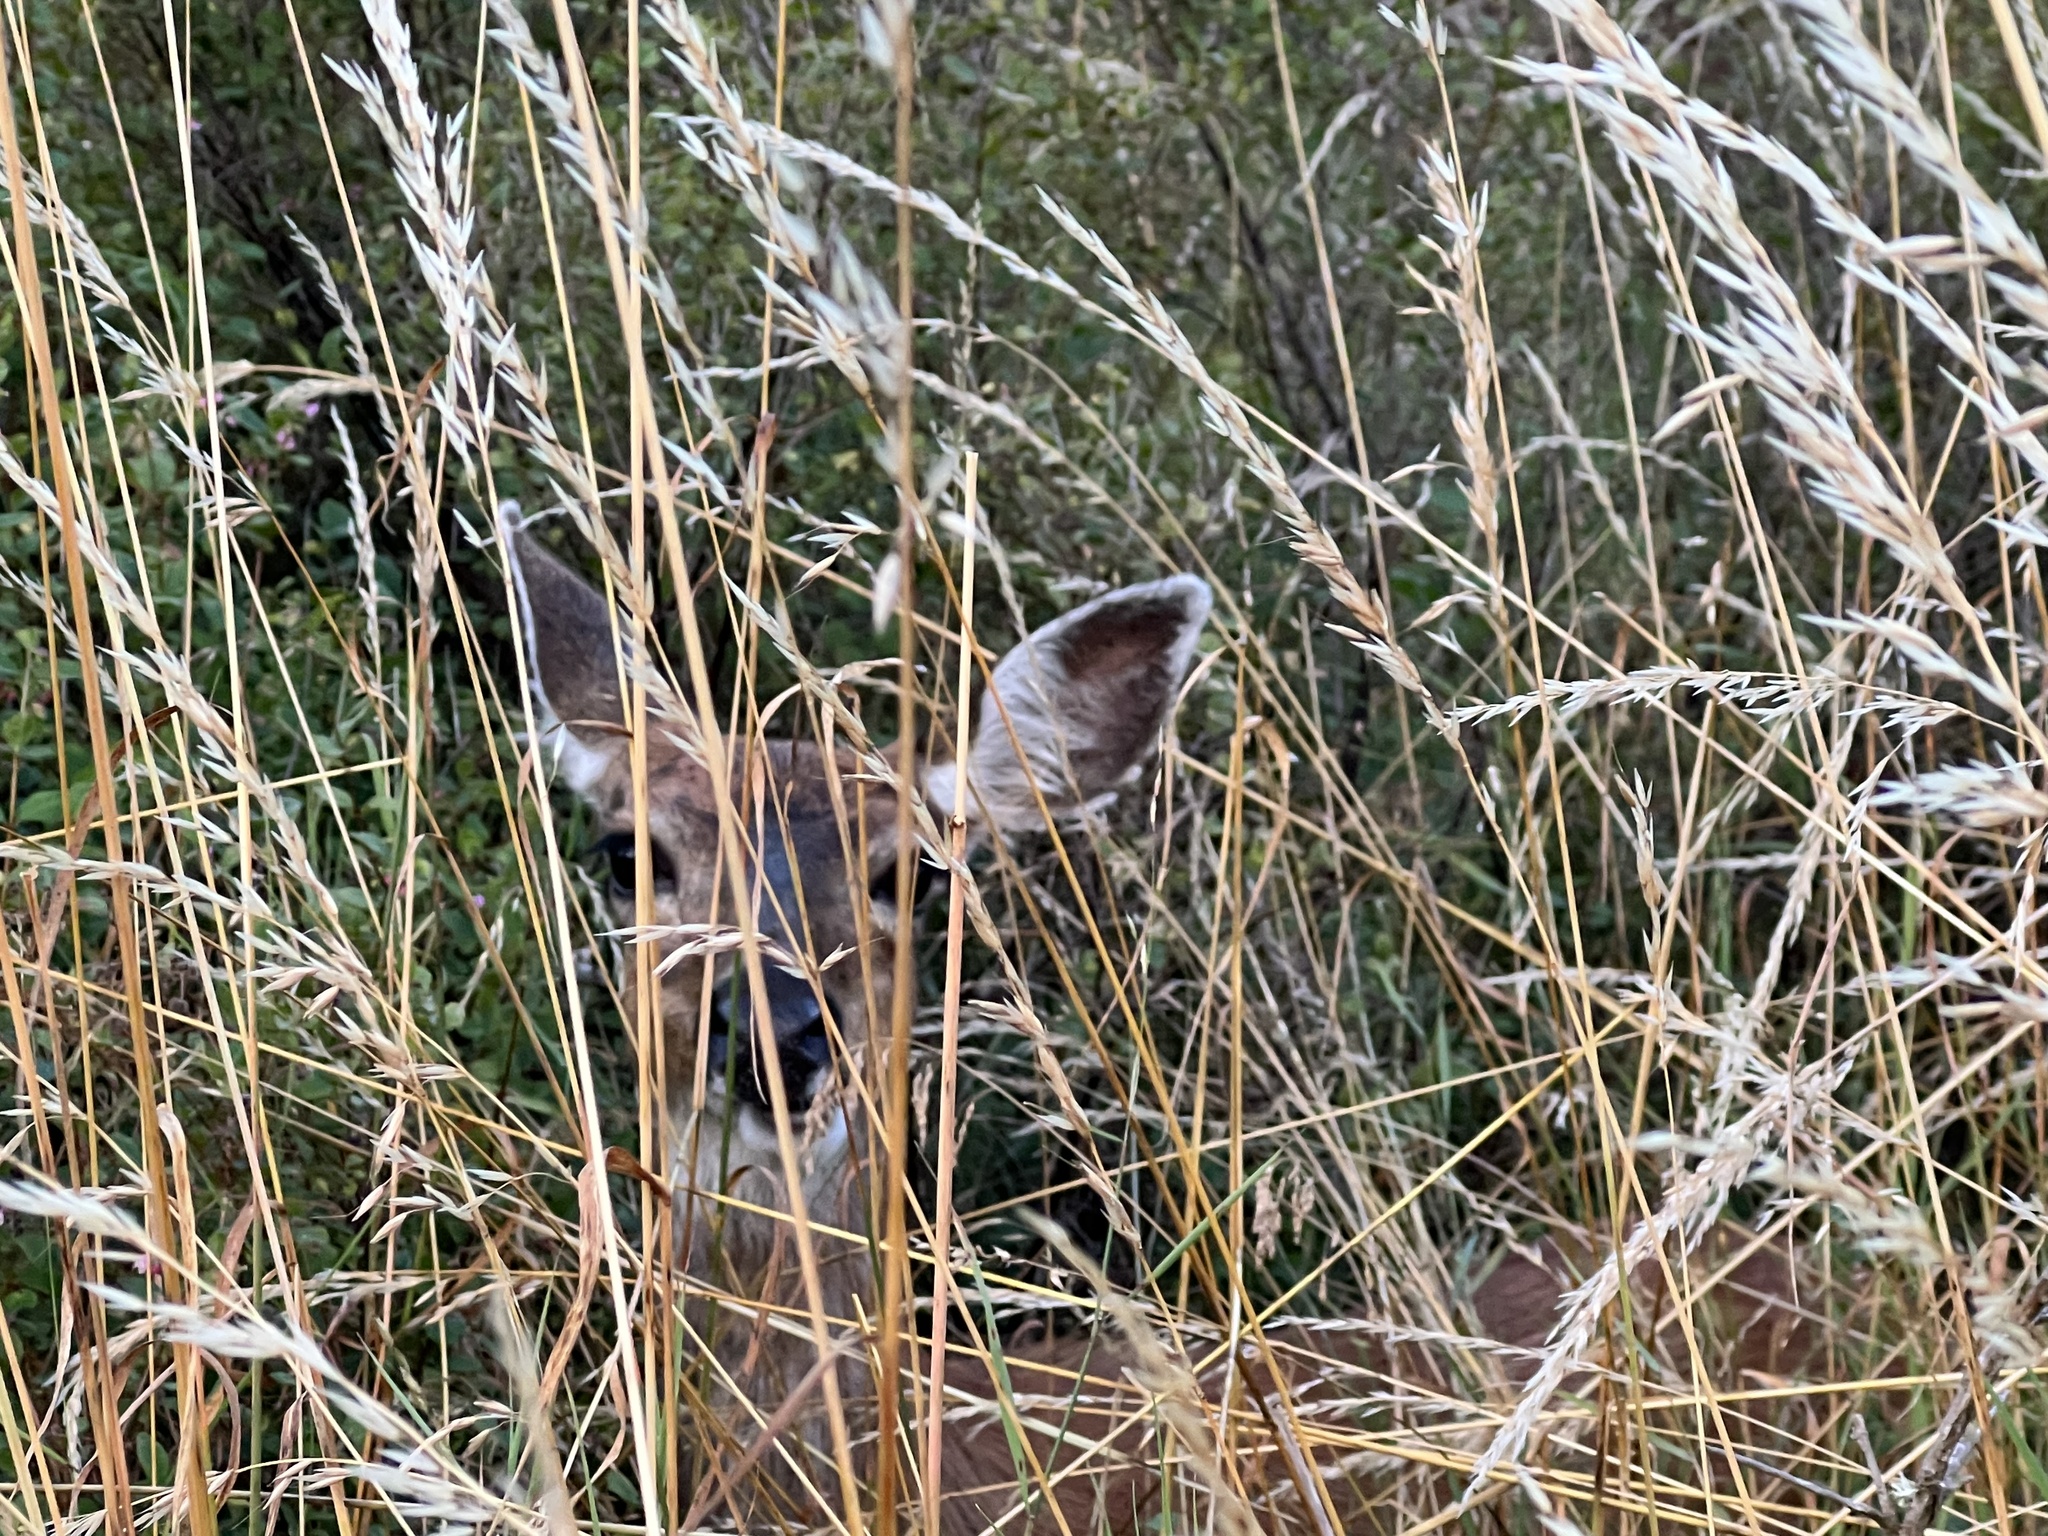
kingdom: Animalia
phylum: Chordata
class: Mammalia
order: Artiodactyla
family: Cervidae
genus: Odocoileus
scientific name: Odocoileus hemionus
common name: Mule deer
